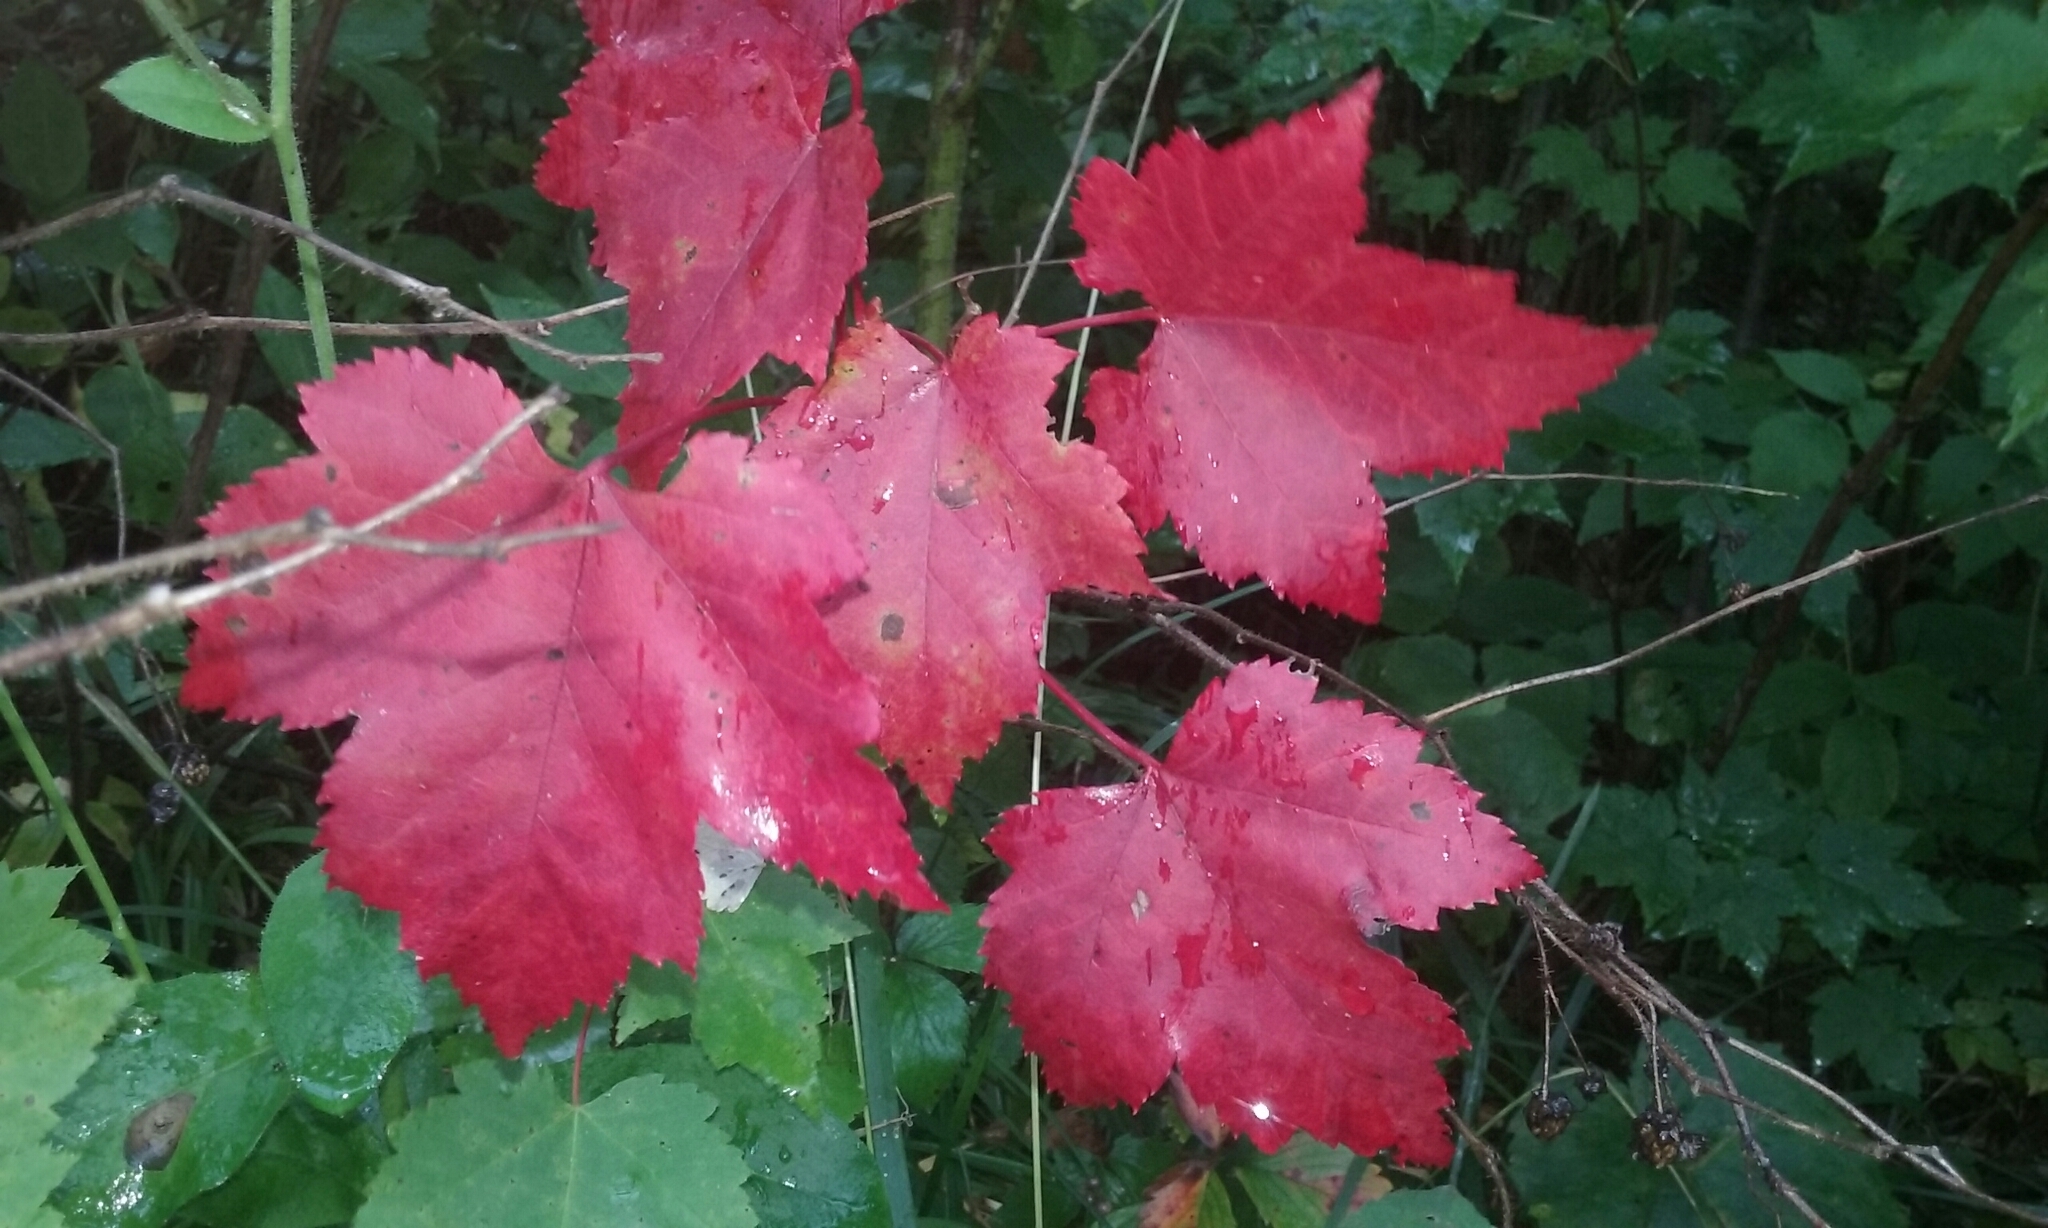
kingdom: Plantae
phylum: Tracheophyta
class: Magnoliopsida
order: Sapindales
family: Sapindaceae
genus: Acer
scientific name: Acer rubrum
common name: Red maple
